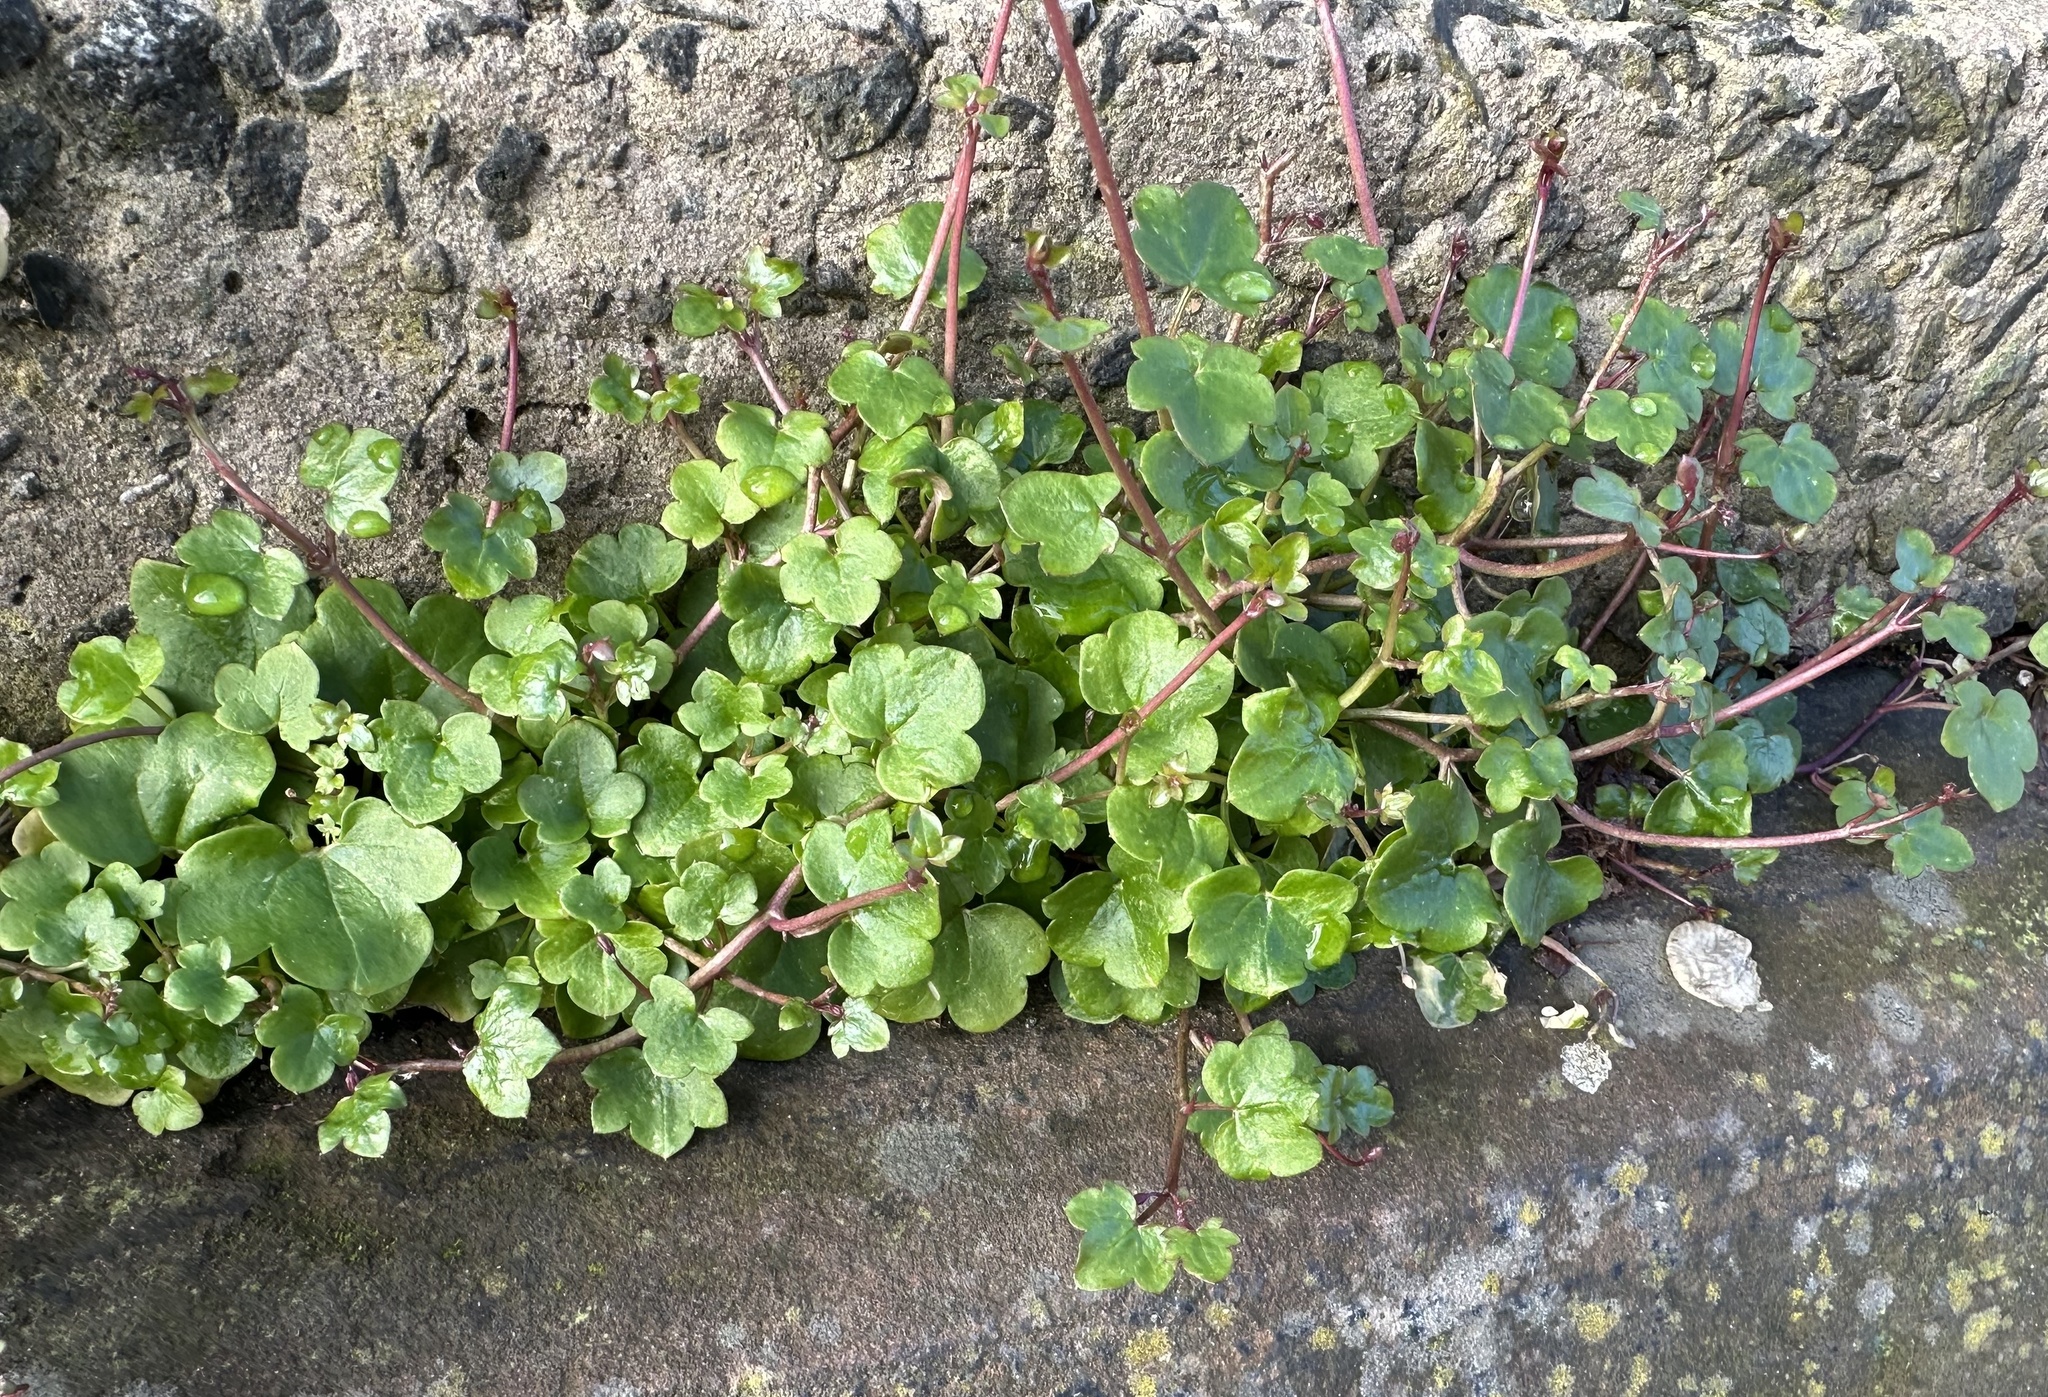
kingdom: Plantae
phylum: Tracheophyta
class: Magnoliopsida
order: Lamiales
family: Plantaginaceae
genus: Cymbalaria
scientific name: Cymbalaria muralis
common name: Ivy-leaved toadflax
